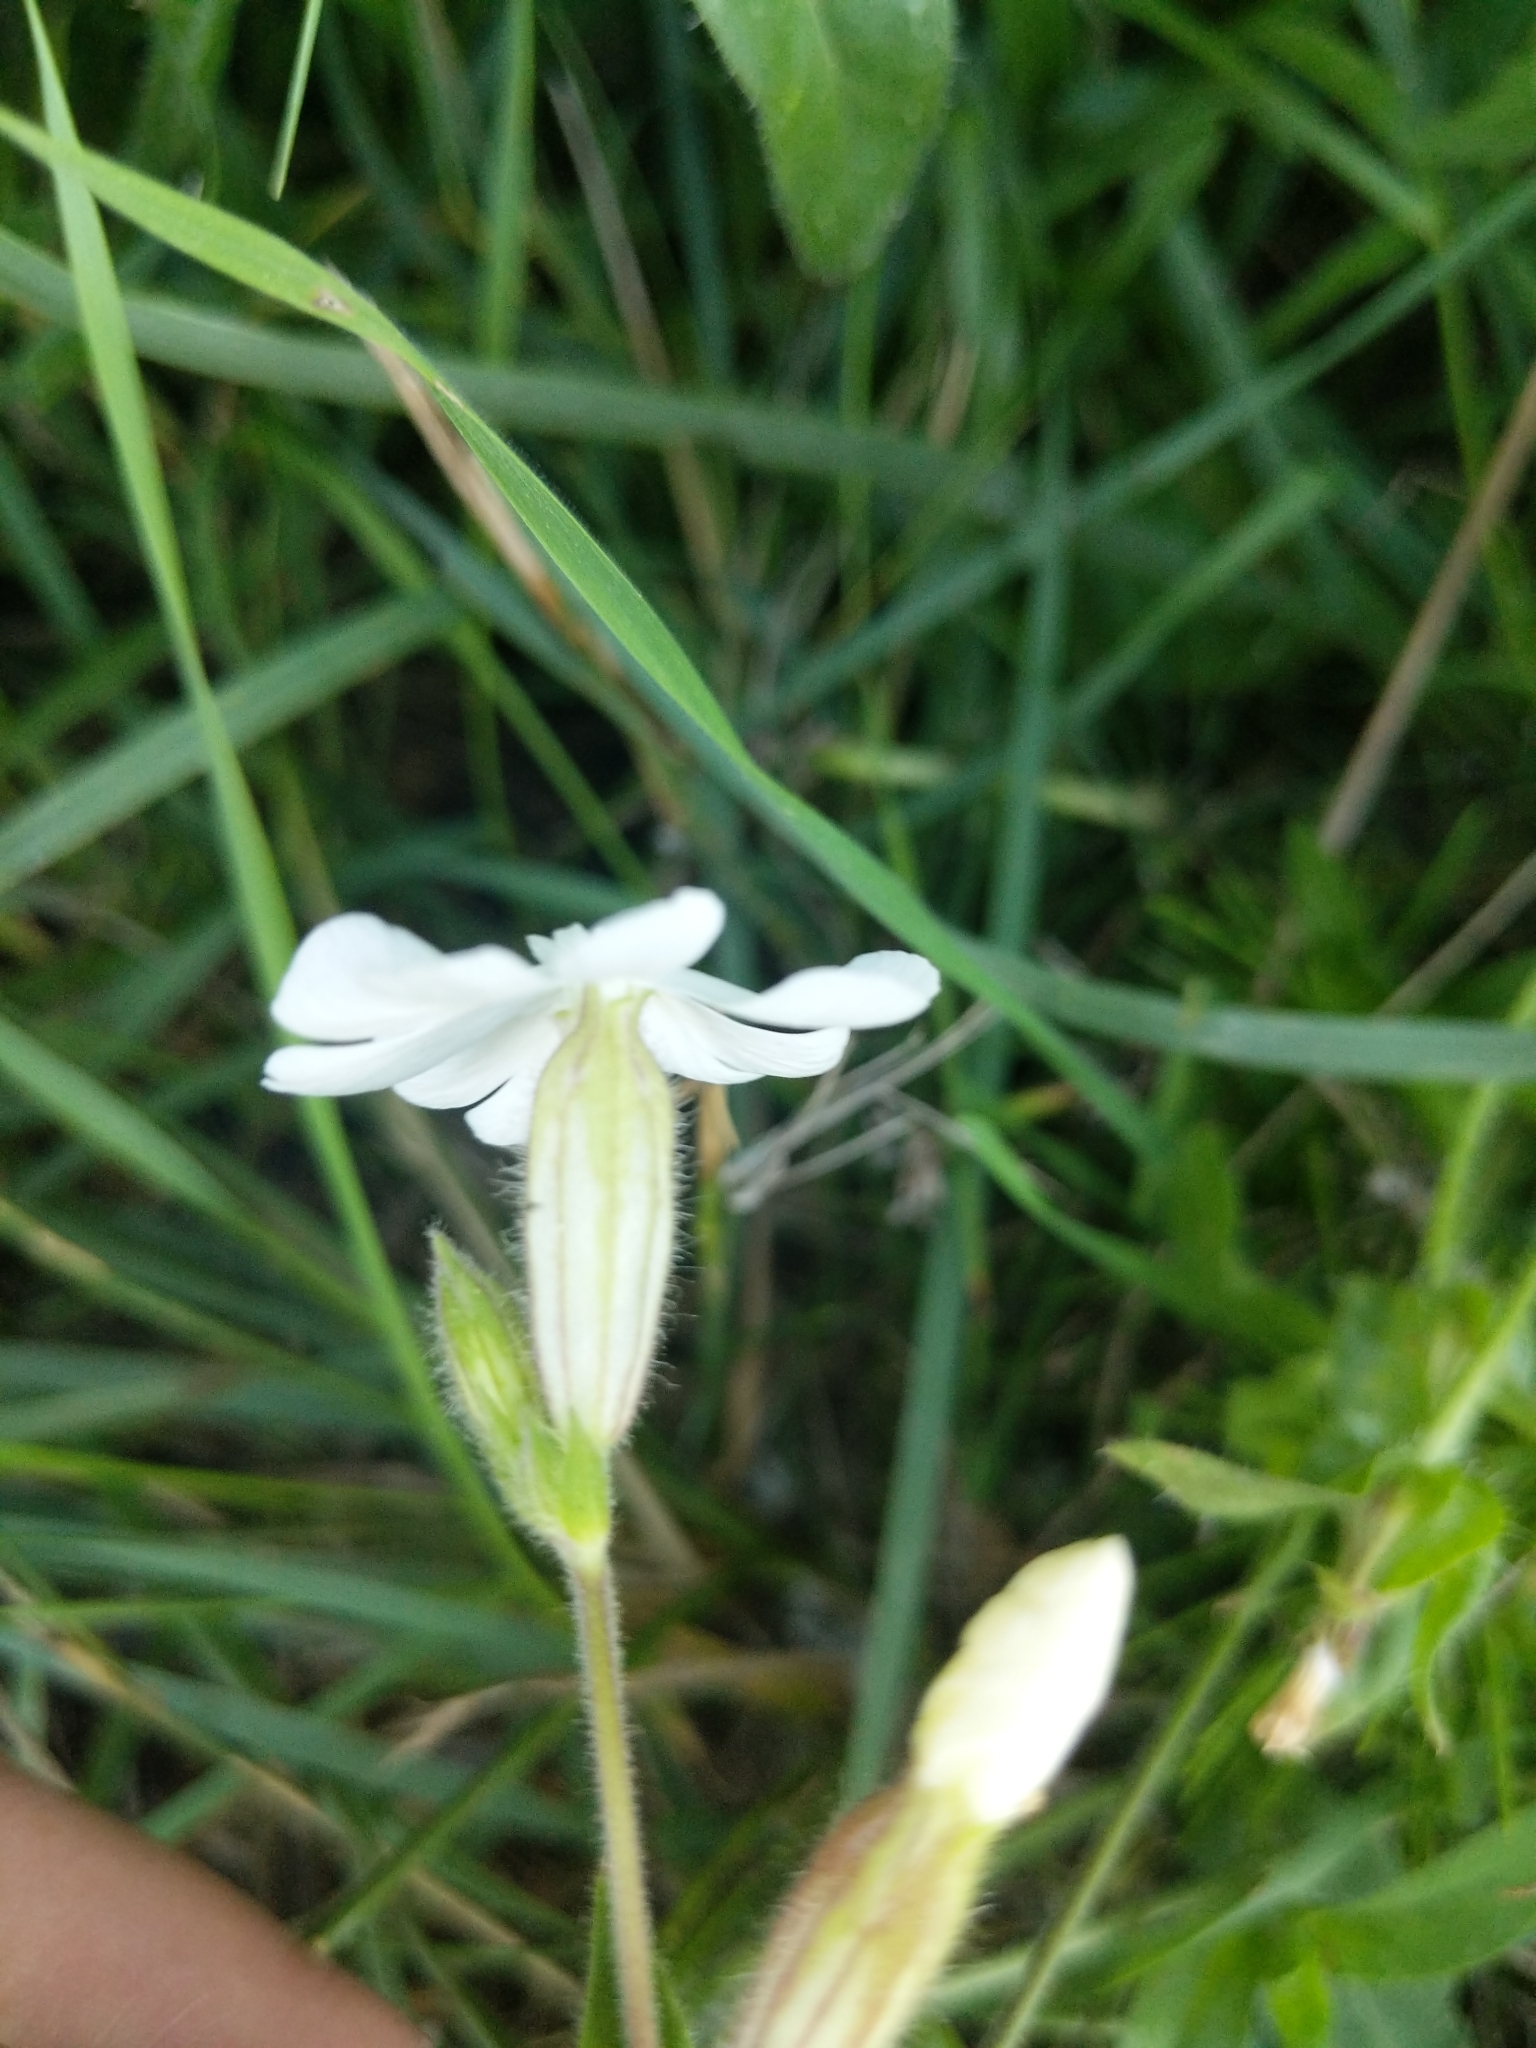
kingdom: Plantae
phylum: Tracheophyta
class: Magnoliopsida
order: Caryophyllales
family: Caryophyllaceae
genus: Silene
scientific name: Silene latifolia
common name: White campion
